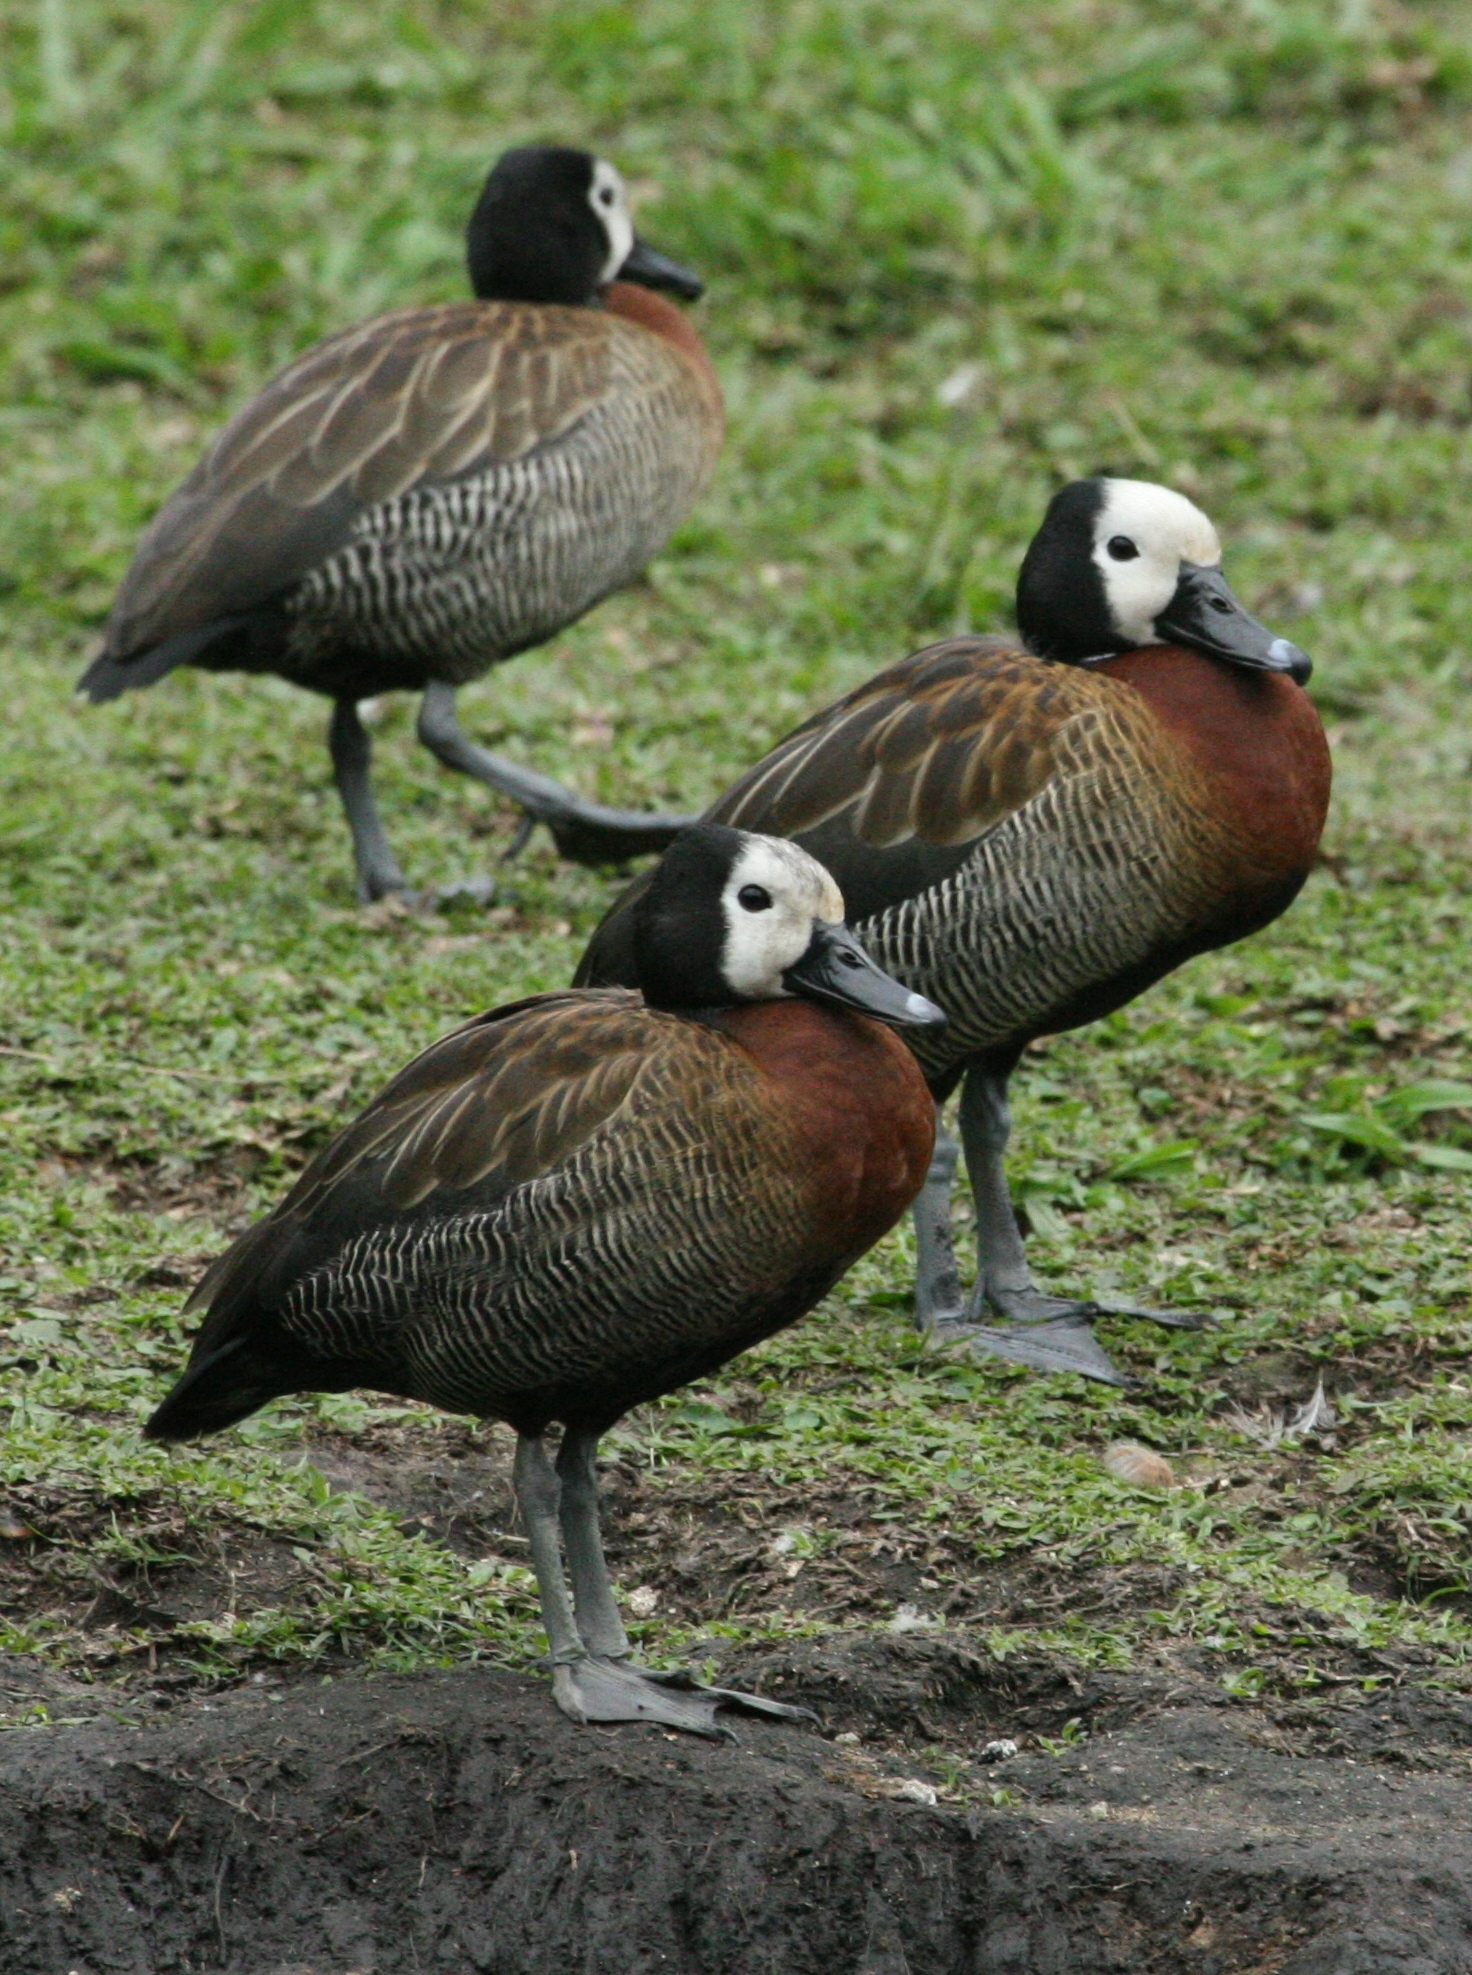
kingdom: Animalia
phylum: Chordata
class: Aves
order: Anseriformes
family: Anatidae
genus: Dendrocygna
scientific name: Dendrocygna viduata
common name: White-faced whistling duck
